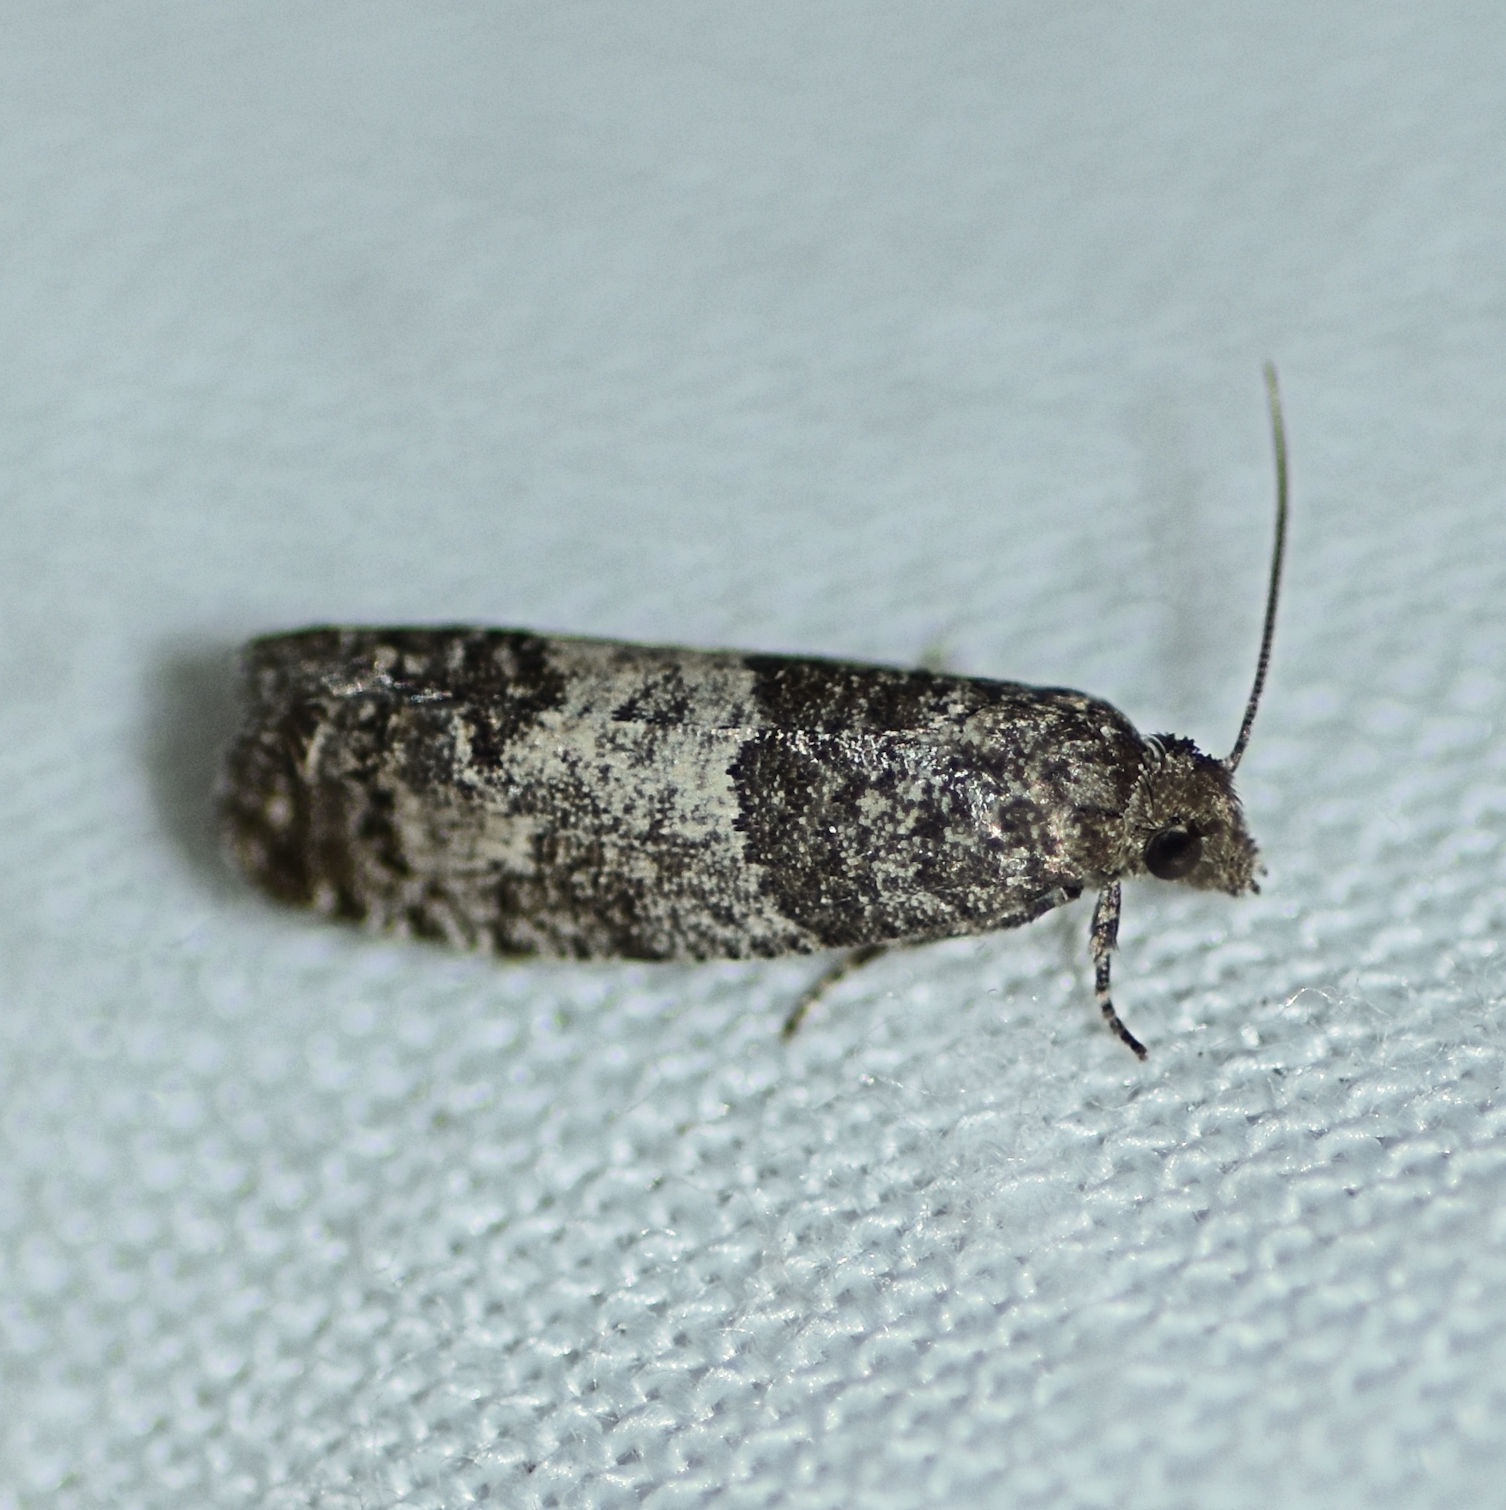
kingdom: Animalia
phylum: Arthropoda
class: Insecta
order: Lepidoptera
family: Tortricidae
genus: Spilonota
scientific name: Spilonota ocellana
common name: Bud moth
